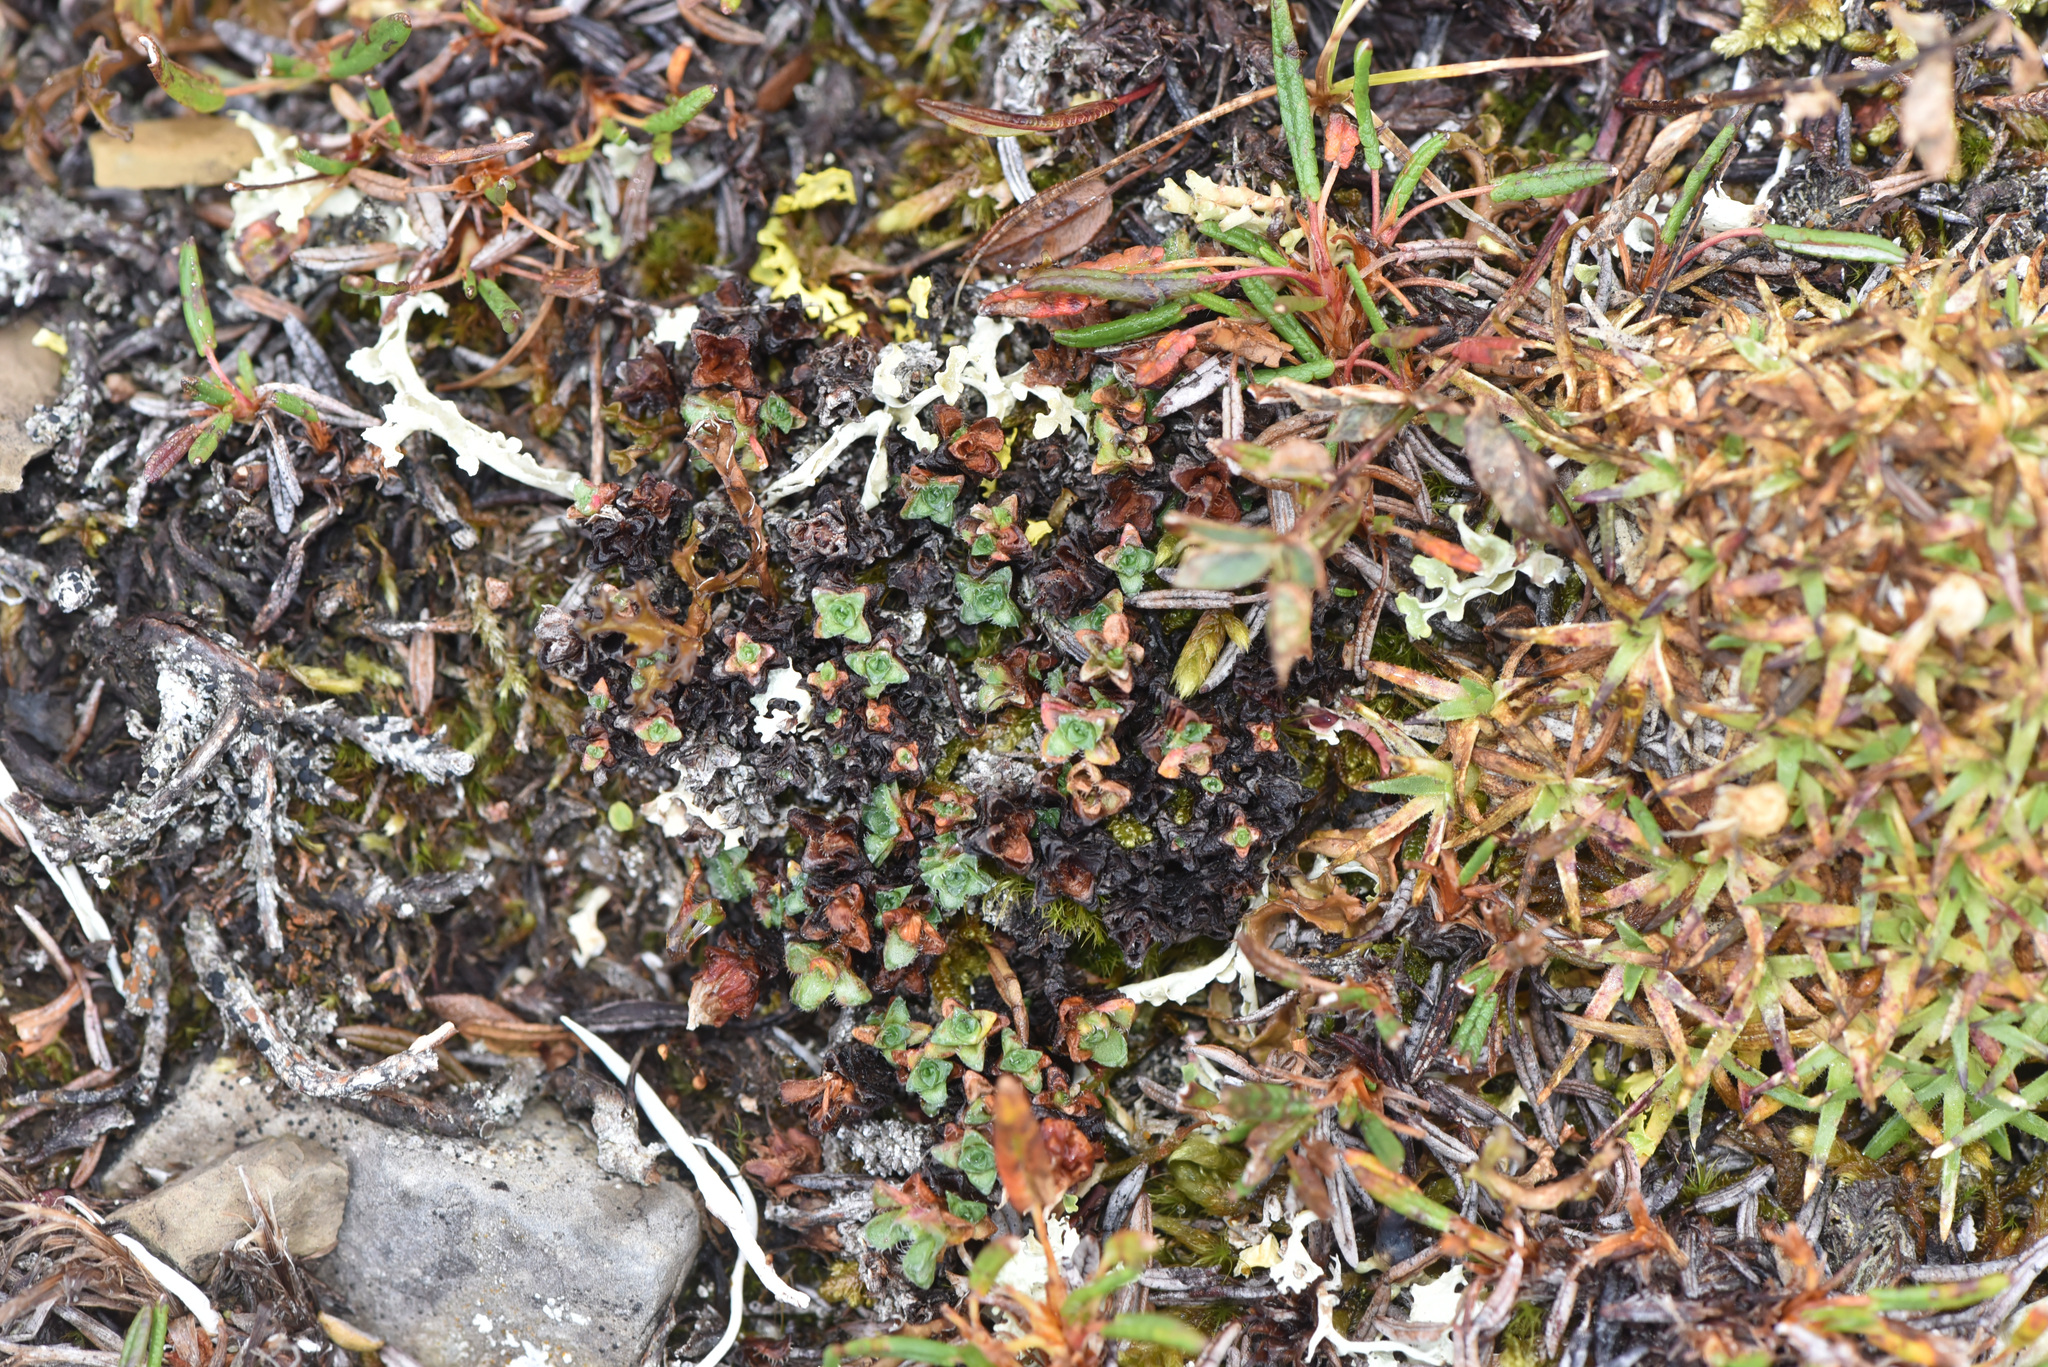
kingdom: Plantae
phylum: Tracheophyta
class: Magnoliopsida
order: Saxifragales
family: Saxifragaceae
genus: Saxifraga
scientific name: Saxifraga oppositifolia
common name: Purple saxifrage
